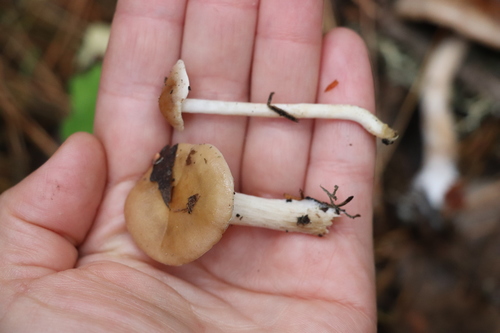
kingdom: Fungi
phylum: Basidiomycota
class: Agaricomycetes
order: Agaricales
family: Hymenogastraceae
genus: Hebeloma
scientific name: Hebeloma leucosarx
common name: Birch poisonpie
